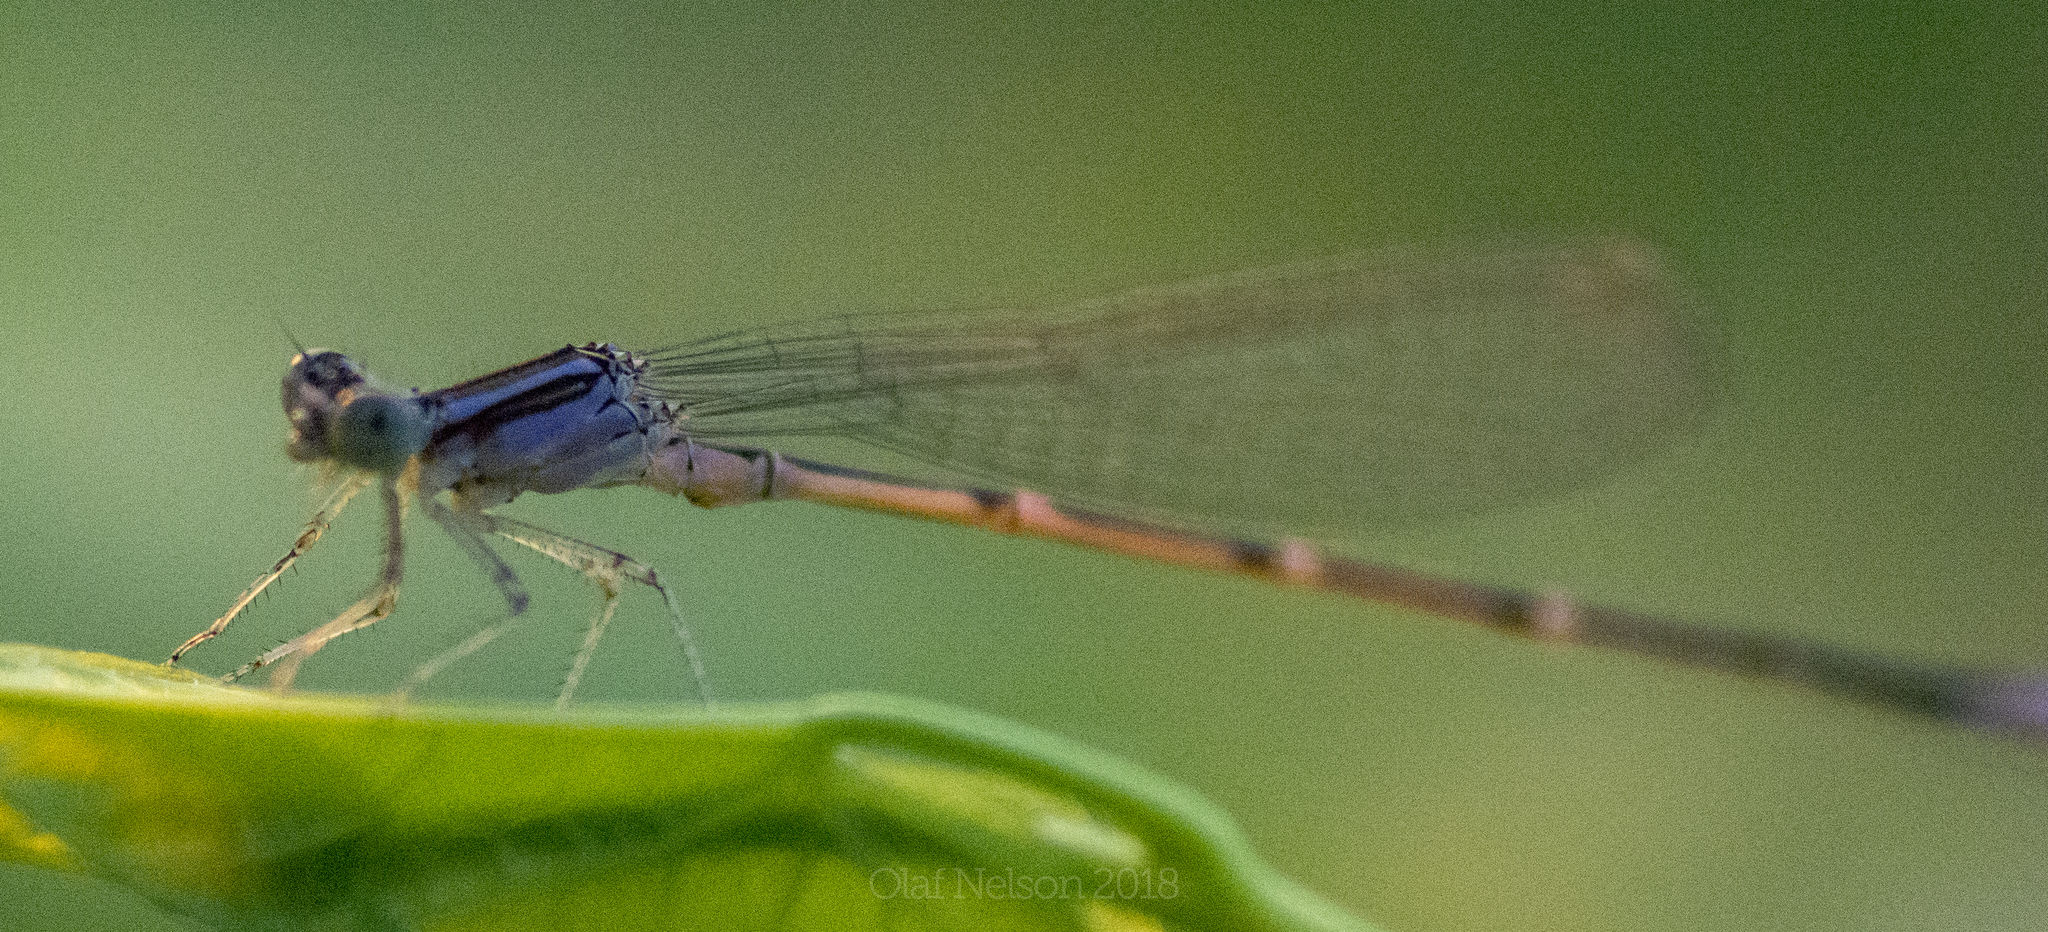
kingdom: Animalia
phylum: Arthropoda
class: Insecta
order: Odonata
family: Coenagrionidae
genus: Enallagma
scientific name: Enallagma exsulans
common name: Stream bluet
